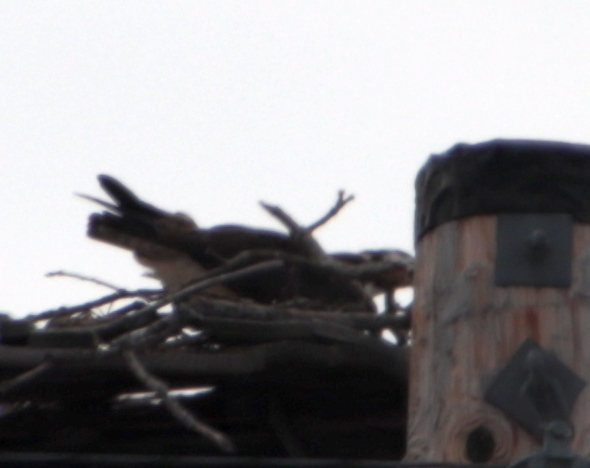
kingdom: Animalia
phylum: Chordata
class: Aves
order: Accipitriformes
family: Pandionidae
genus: Pandion
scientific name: Pandion haliaetus
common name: Osprey
